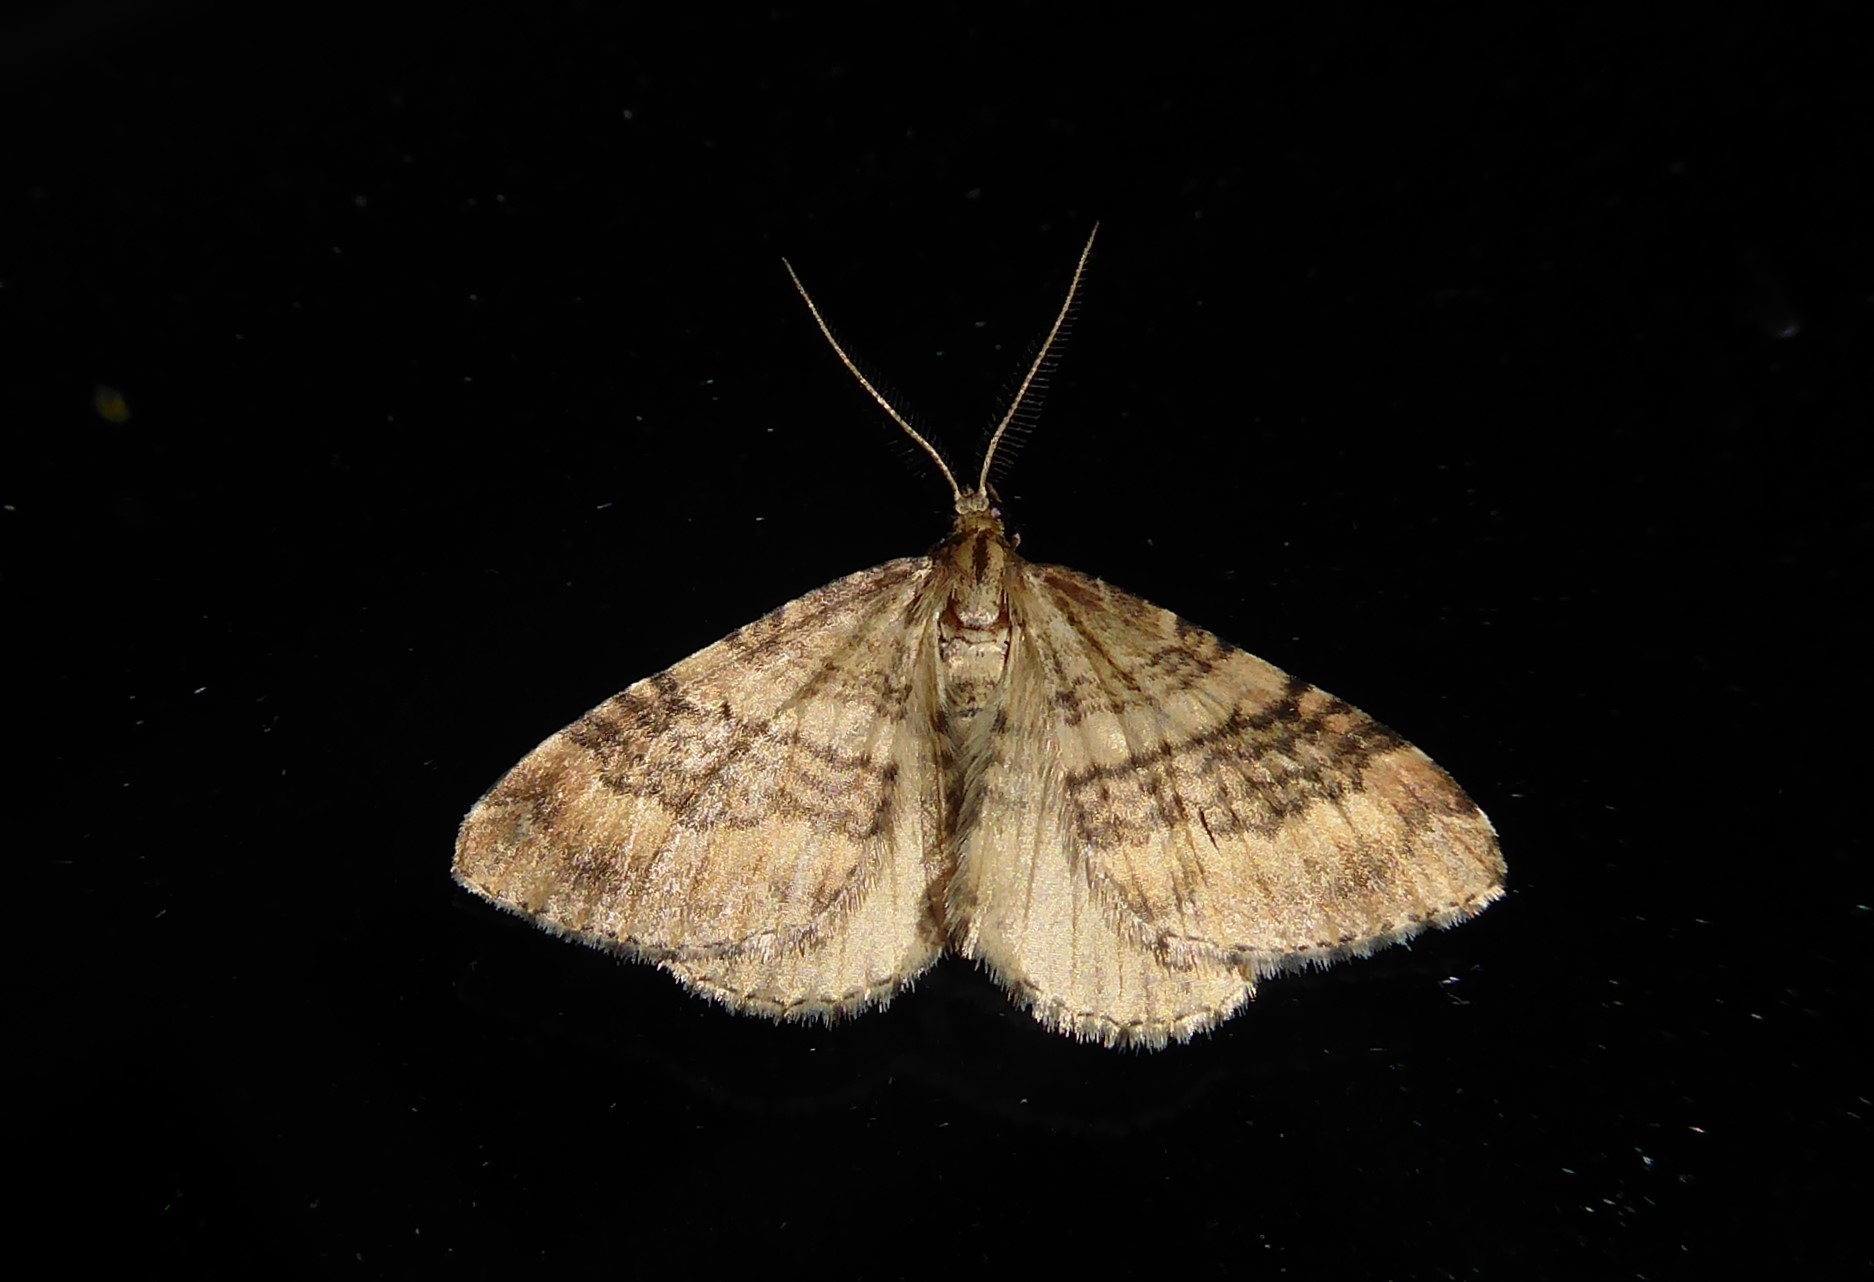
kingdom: Animalia
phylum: Arthropoda
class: Insecta
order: Lepidoptera
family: Geometridae
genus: Asaphodes
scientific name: Asaphodes aegrota
